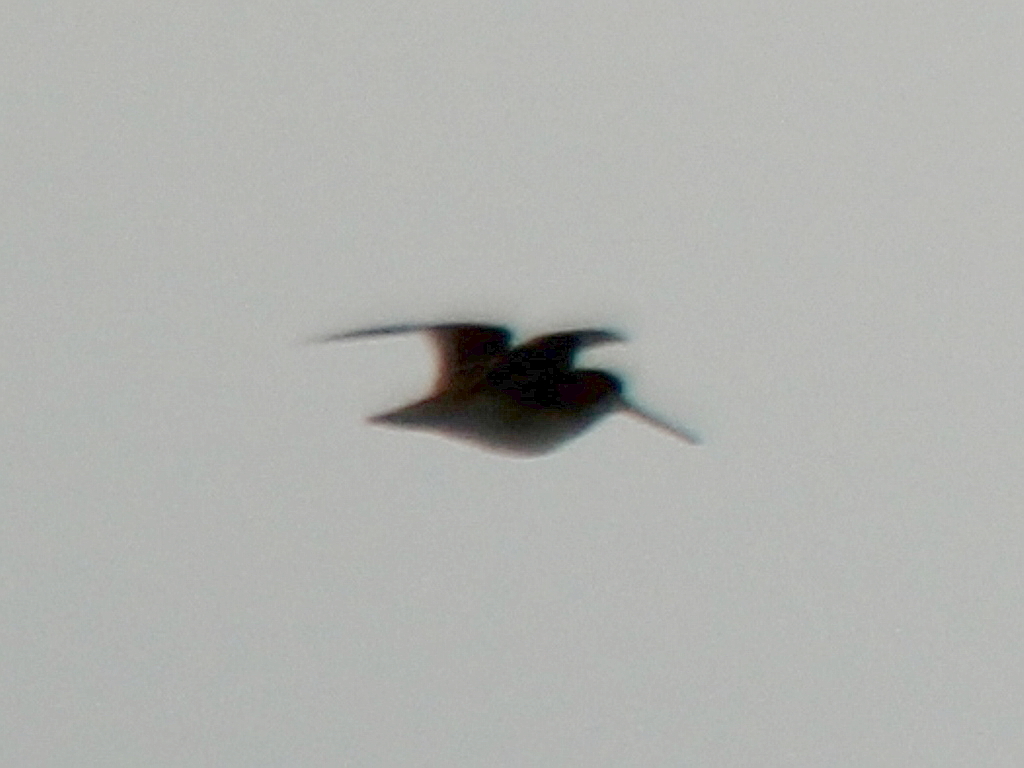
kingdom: Animalia
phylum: Chordata
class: Aves
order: Charadriiformes
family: Scolopacidae
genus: Gallinago
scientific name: Gallinago gallinago
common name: Common snipe
